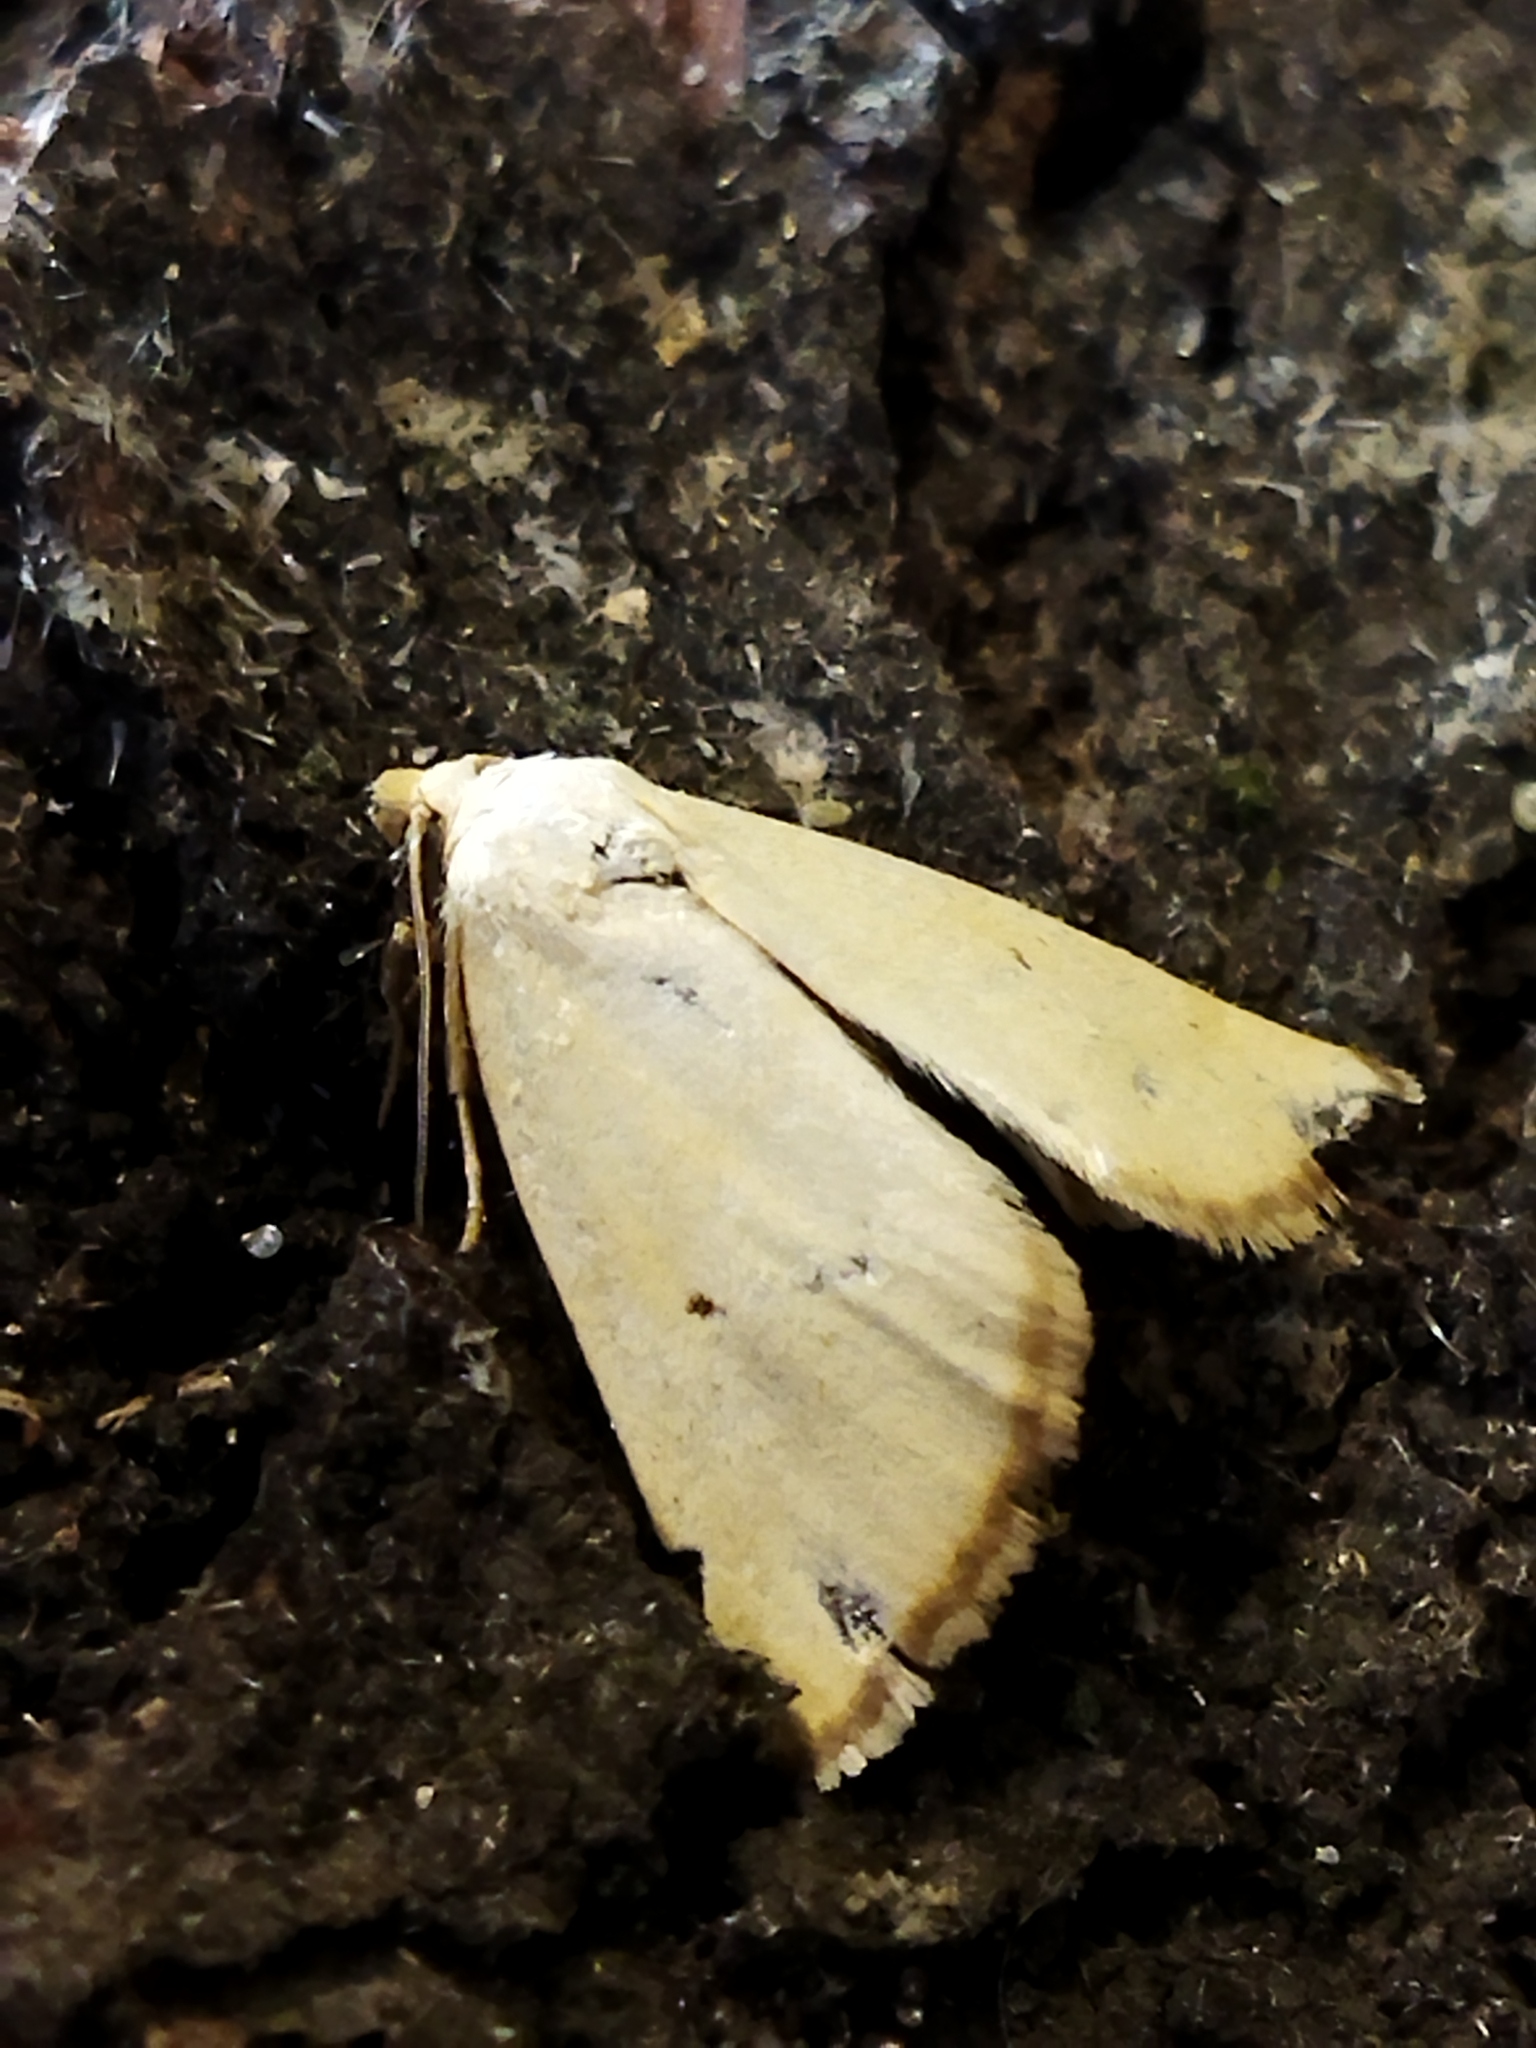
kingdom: Animalia
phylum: Arthropoda
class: Insecta
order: Lepidoptera
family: Noctuidae
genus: Aegle
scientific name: Aegle kaekeritziana
